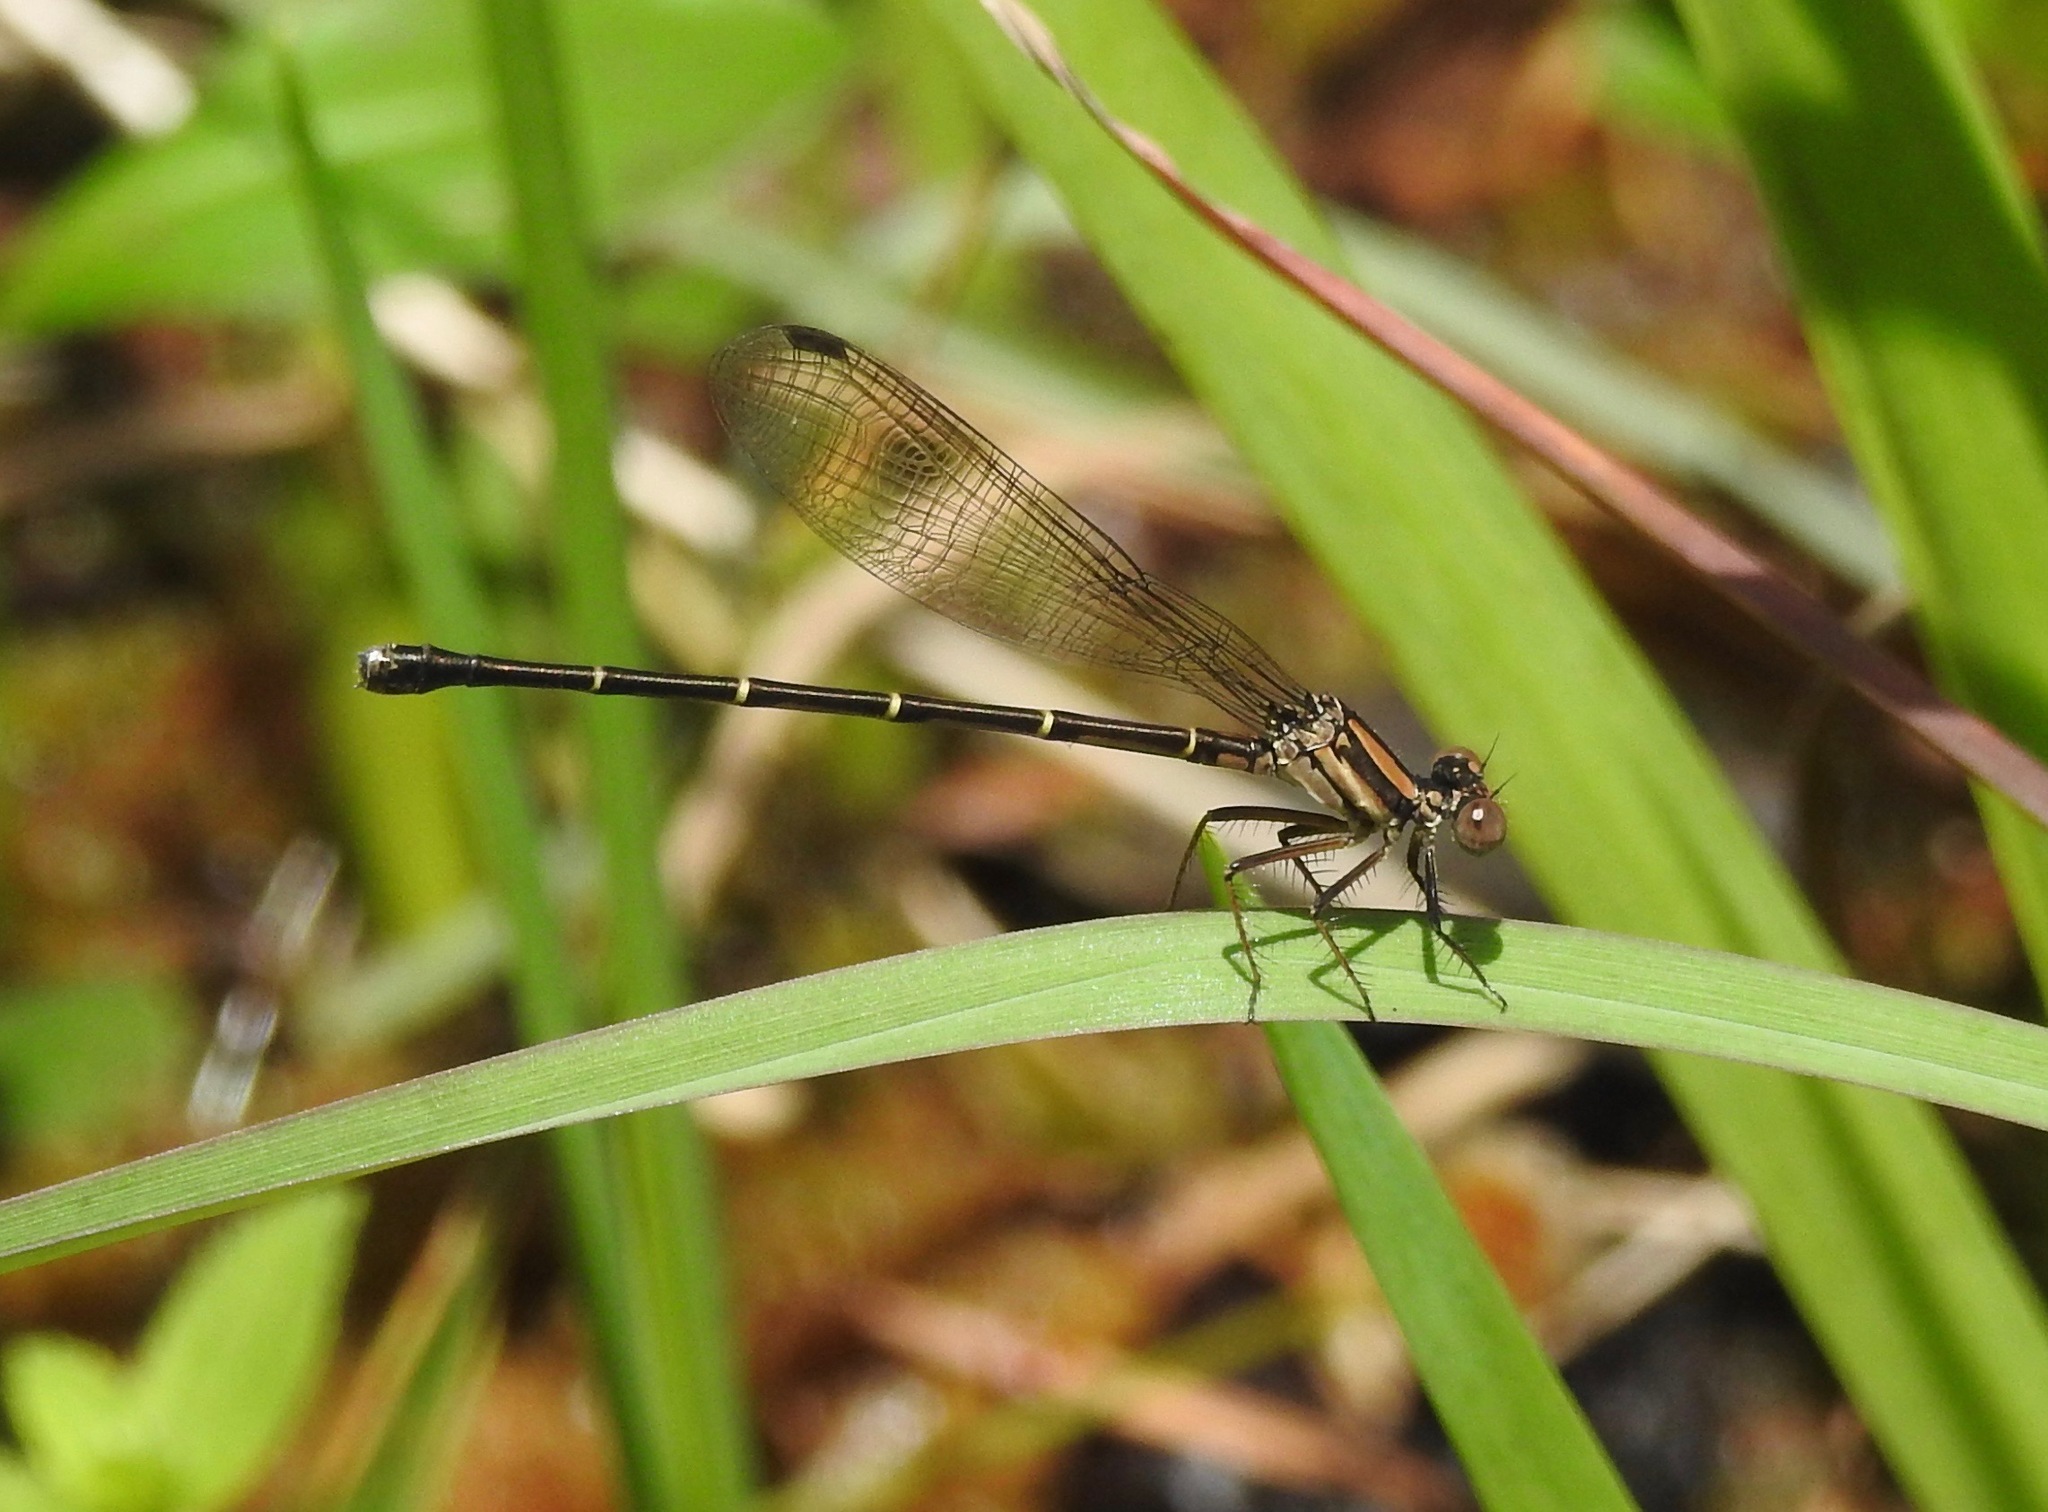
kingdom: Animalia
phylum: Arthropoda
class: Insecta
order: Odonata
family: Coenagrionidae
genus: Argia
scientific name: Argia tibialis
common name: Blue-tipped dancer
